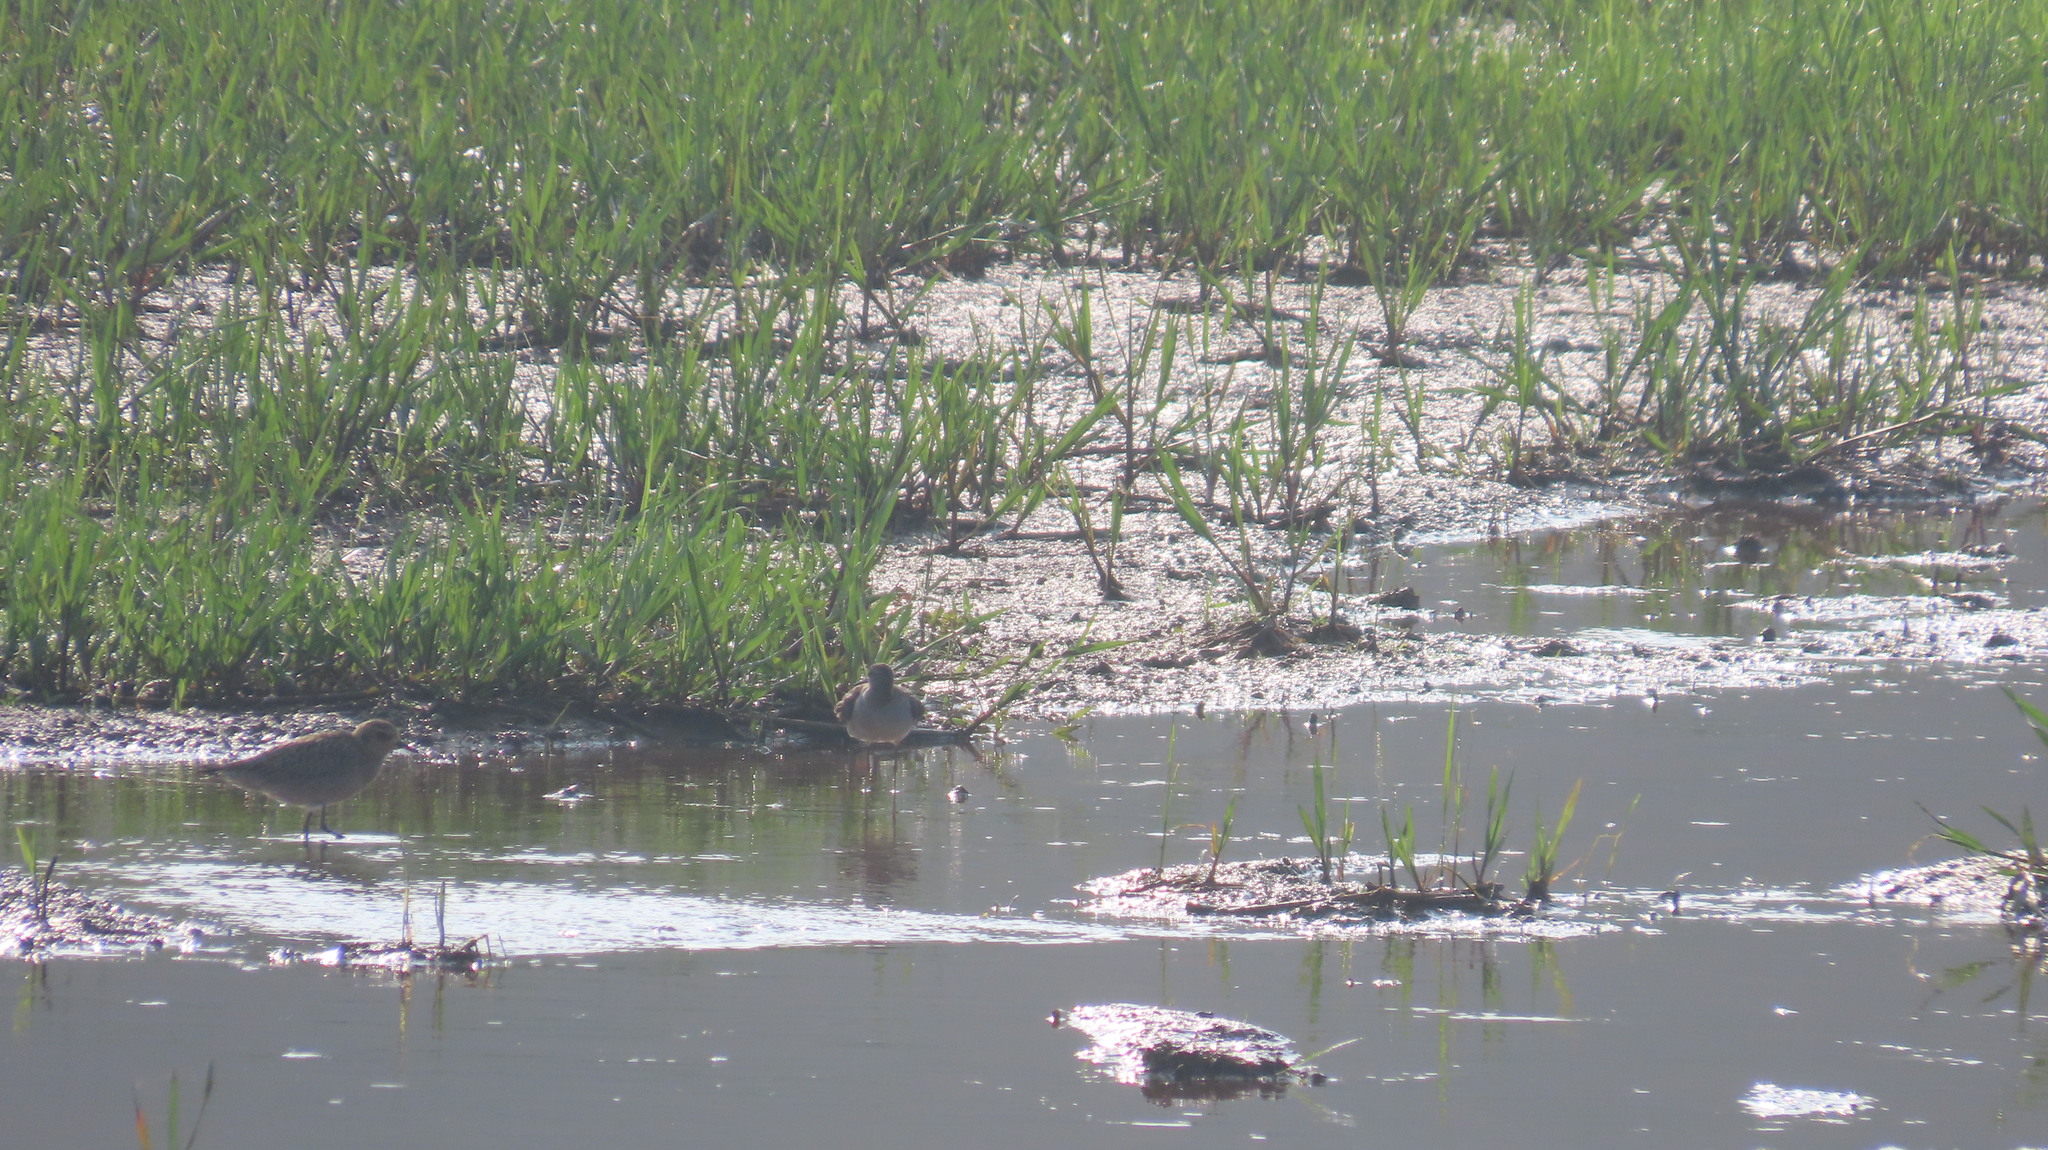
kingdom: Animalia
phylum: Chordata
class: Aves
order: Charadriiformes
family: Scolopacidae
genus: Tringa
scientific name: Tringa glareola
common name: Wood sandpiper
